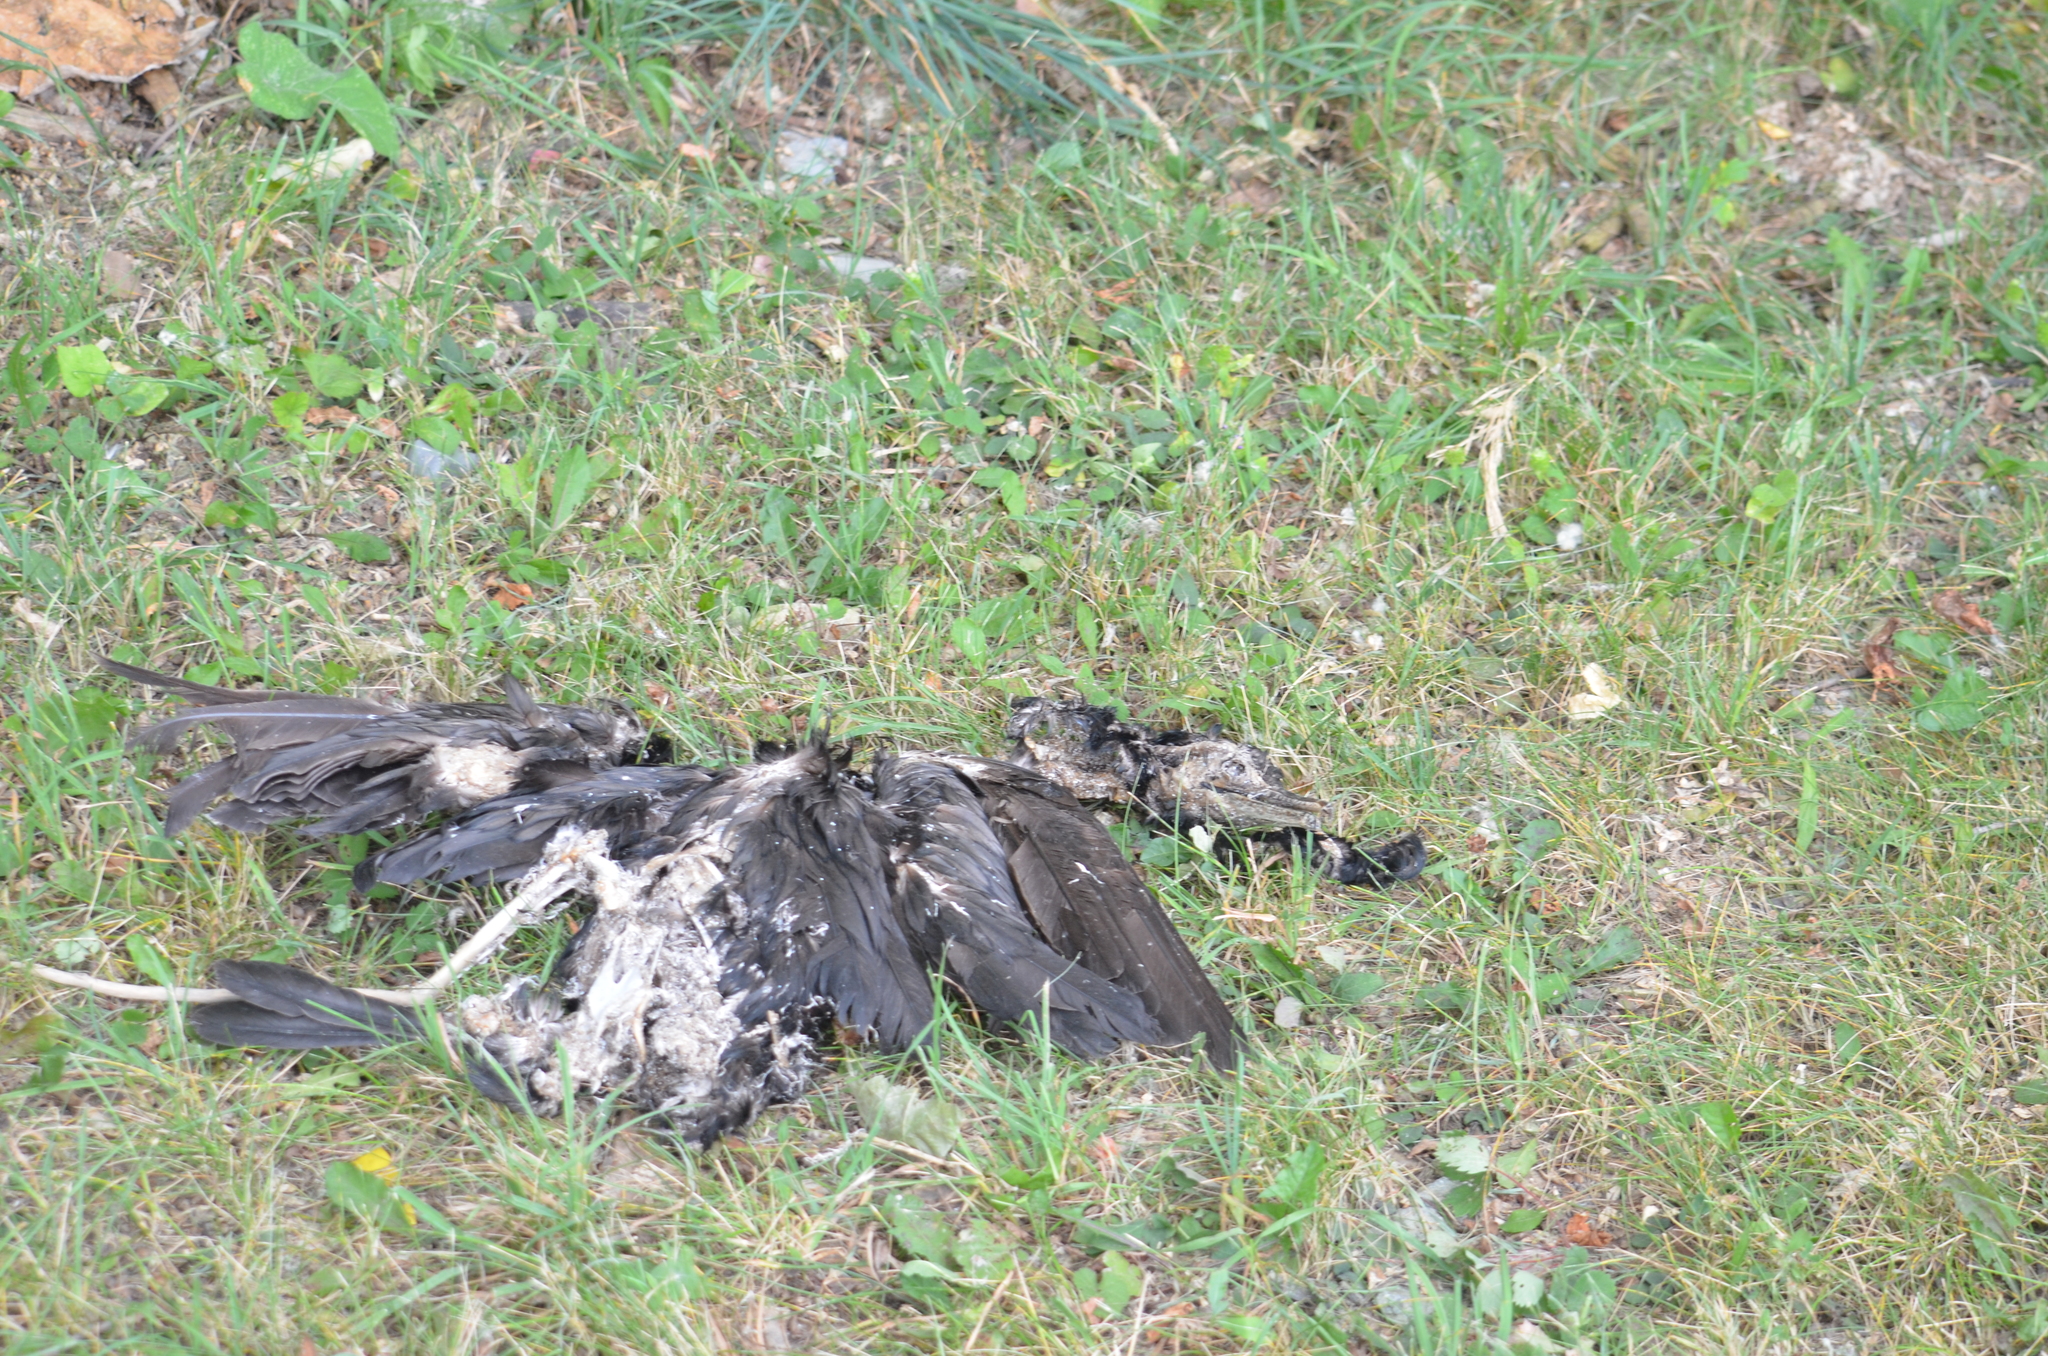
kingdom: Animalia
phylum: Chordata
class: Aves
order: Suliformes
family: Phalacrocoracidae
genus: Phalacrocorax
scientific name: Phalacrocorax auritus
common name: Double-crested cormorant
